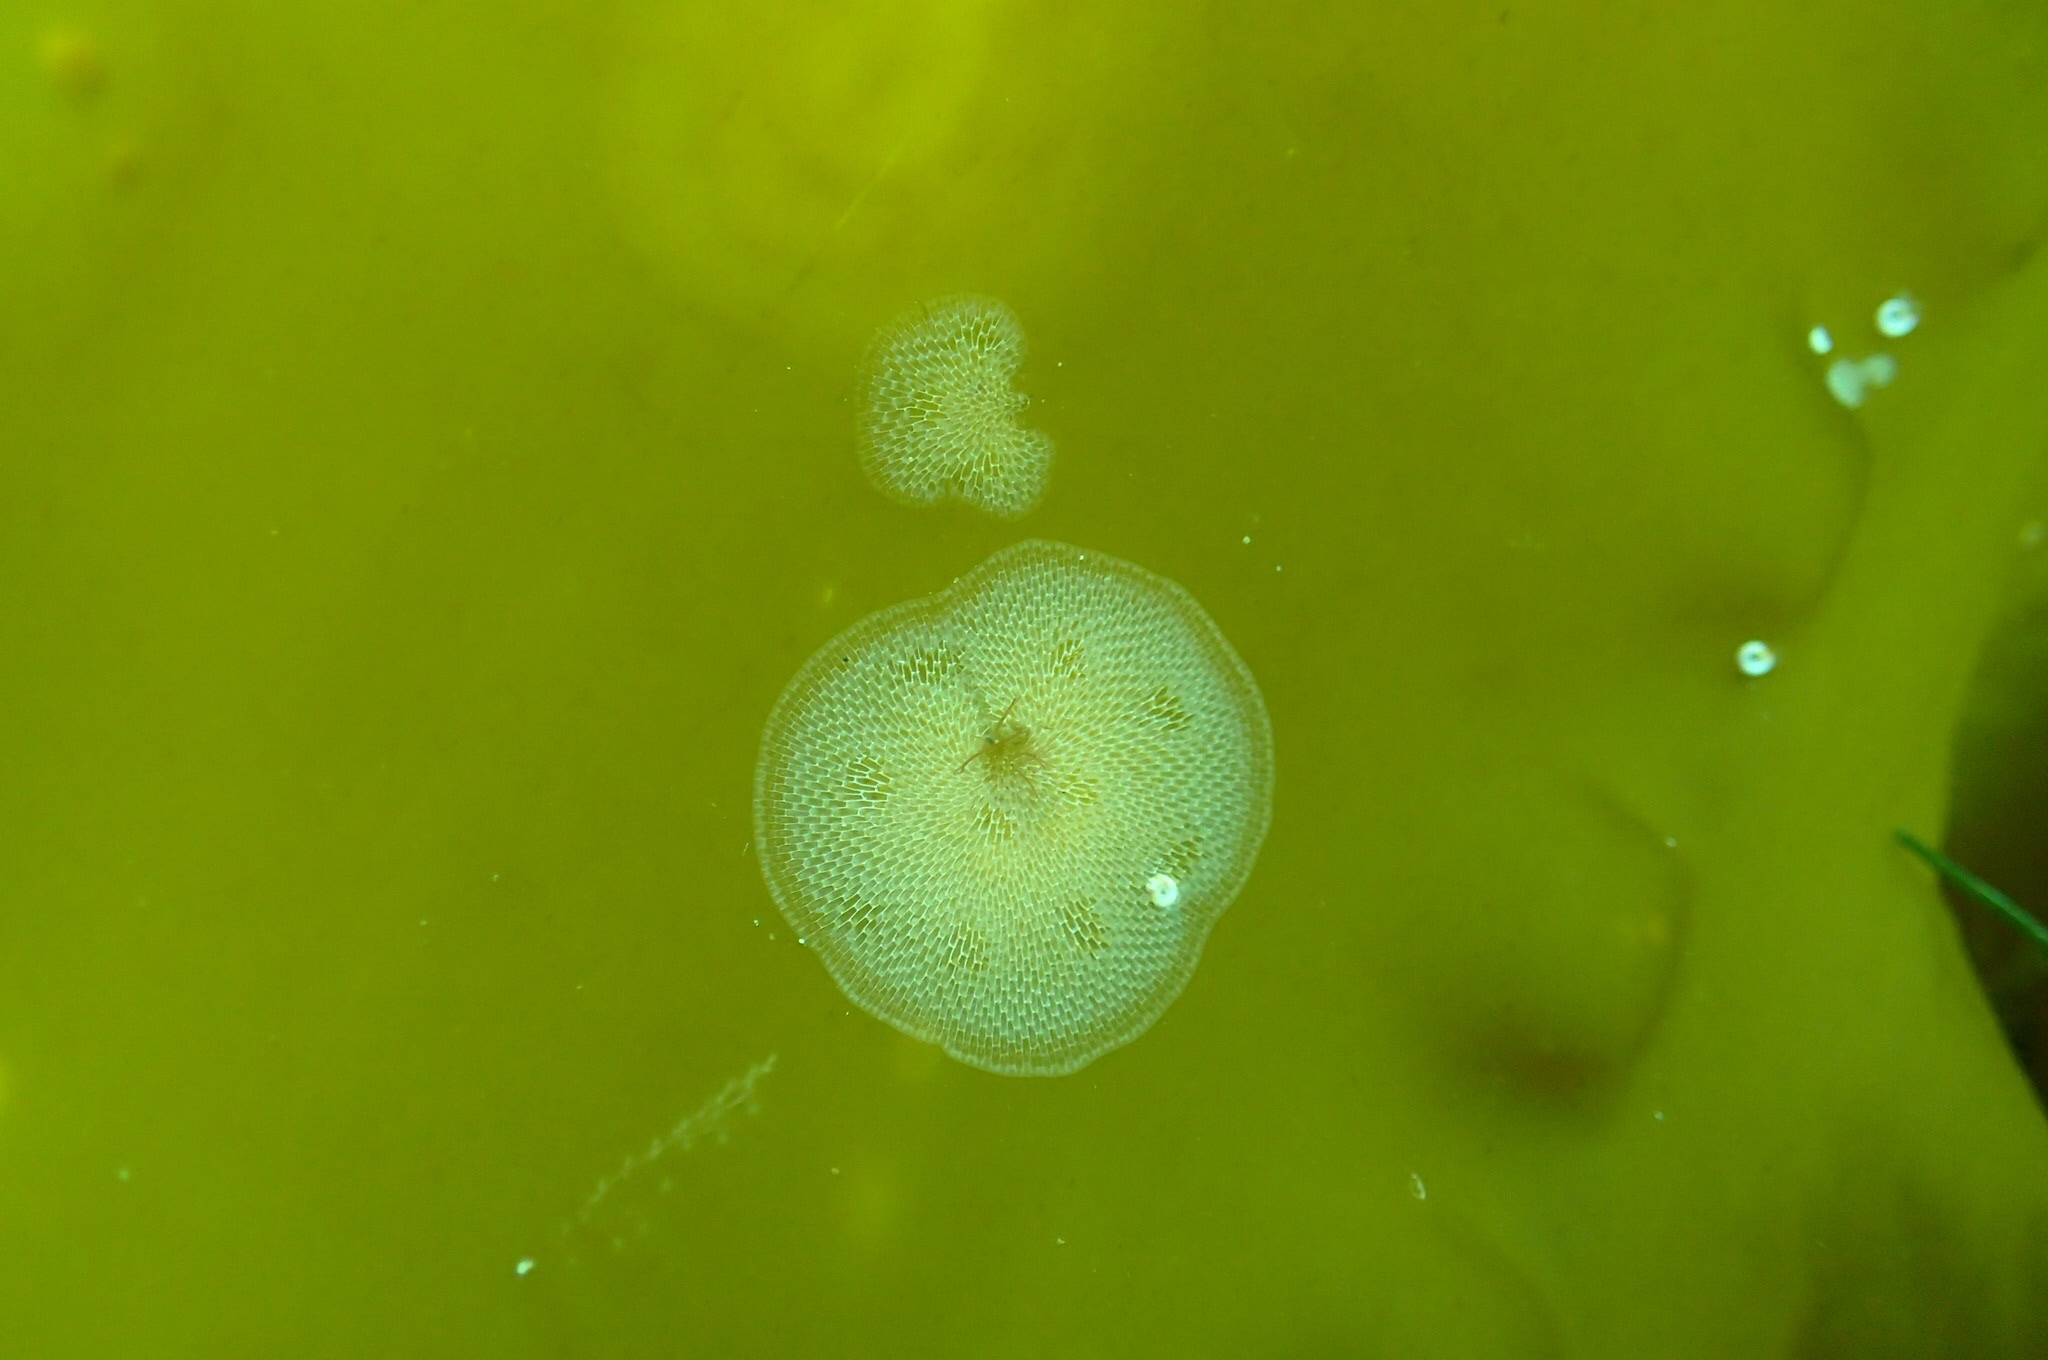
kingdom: Animalia
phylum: Bryozoa
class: Gymnolaemata
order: Cheilostomatida
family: Membraniporidae
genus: Membranipora
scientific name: Membranipora membranacea
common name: Sea mat
